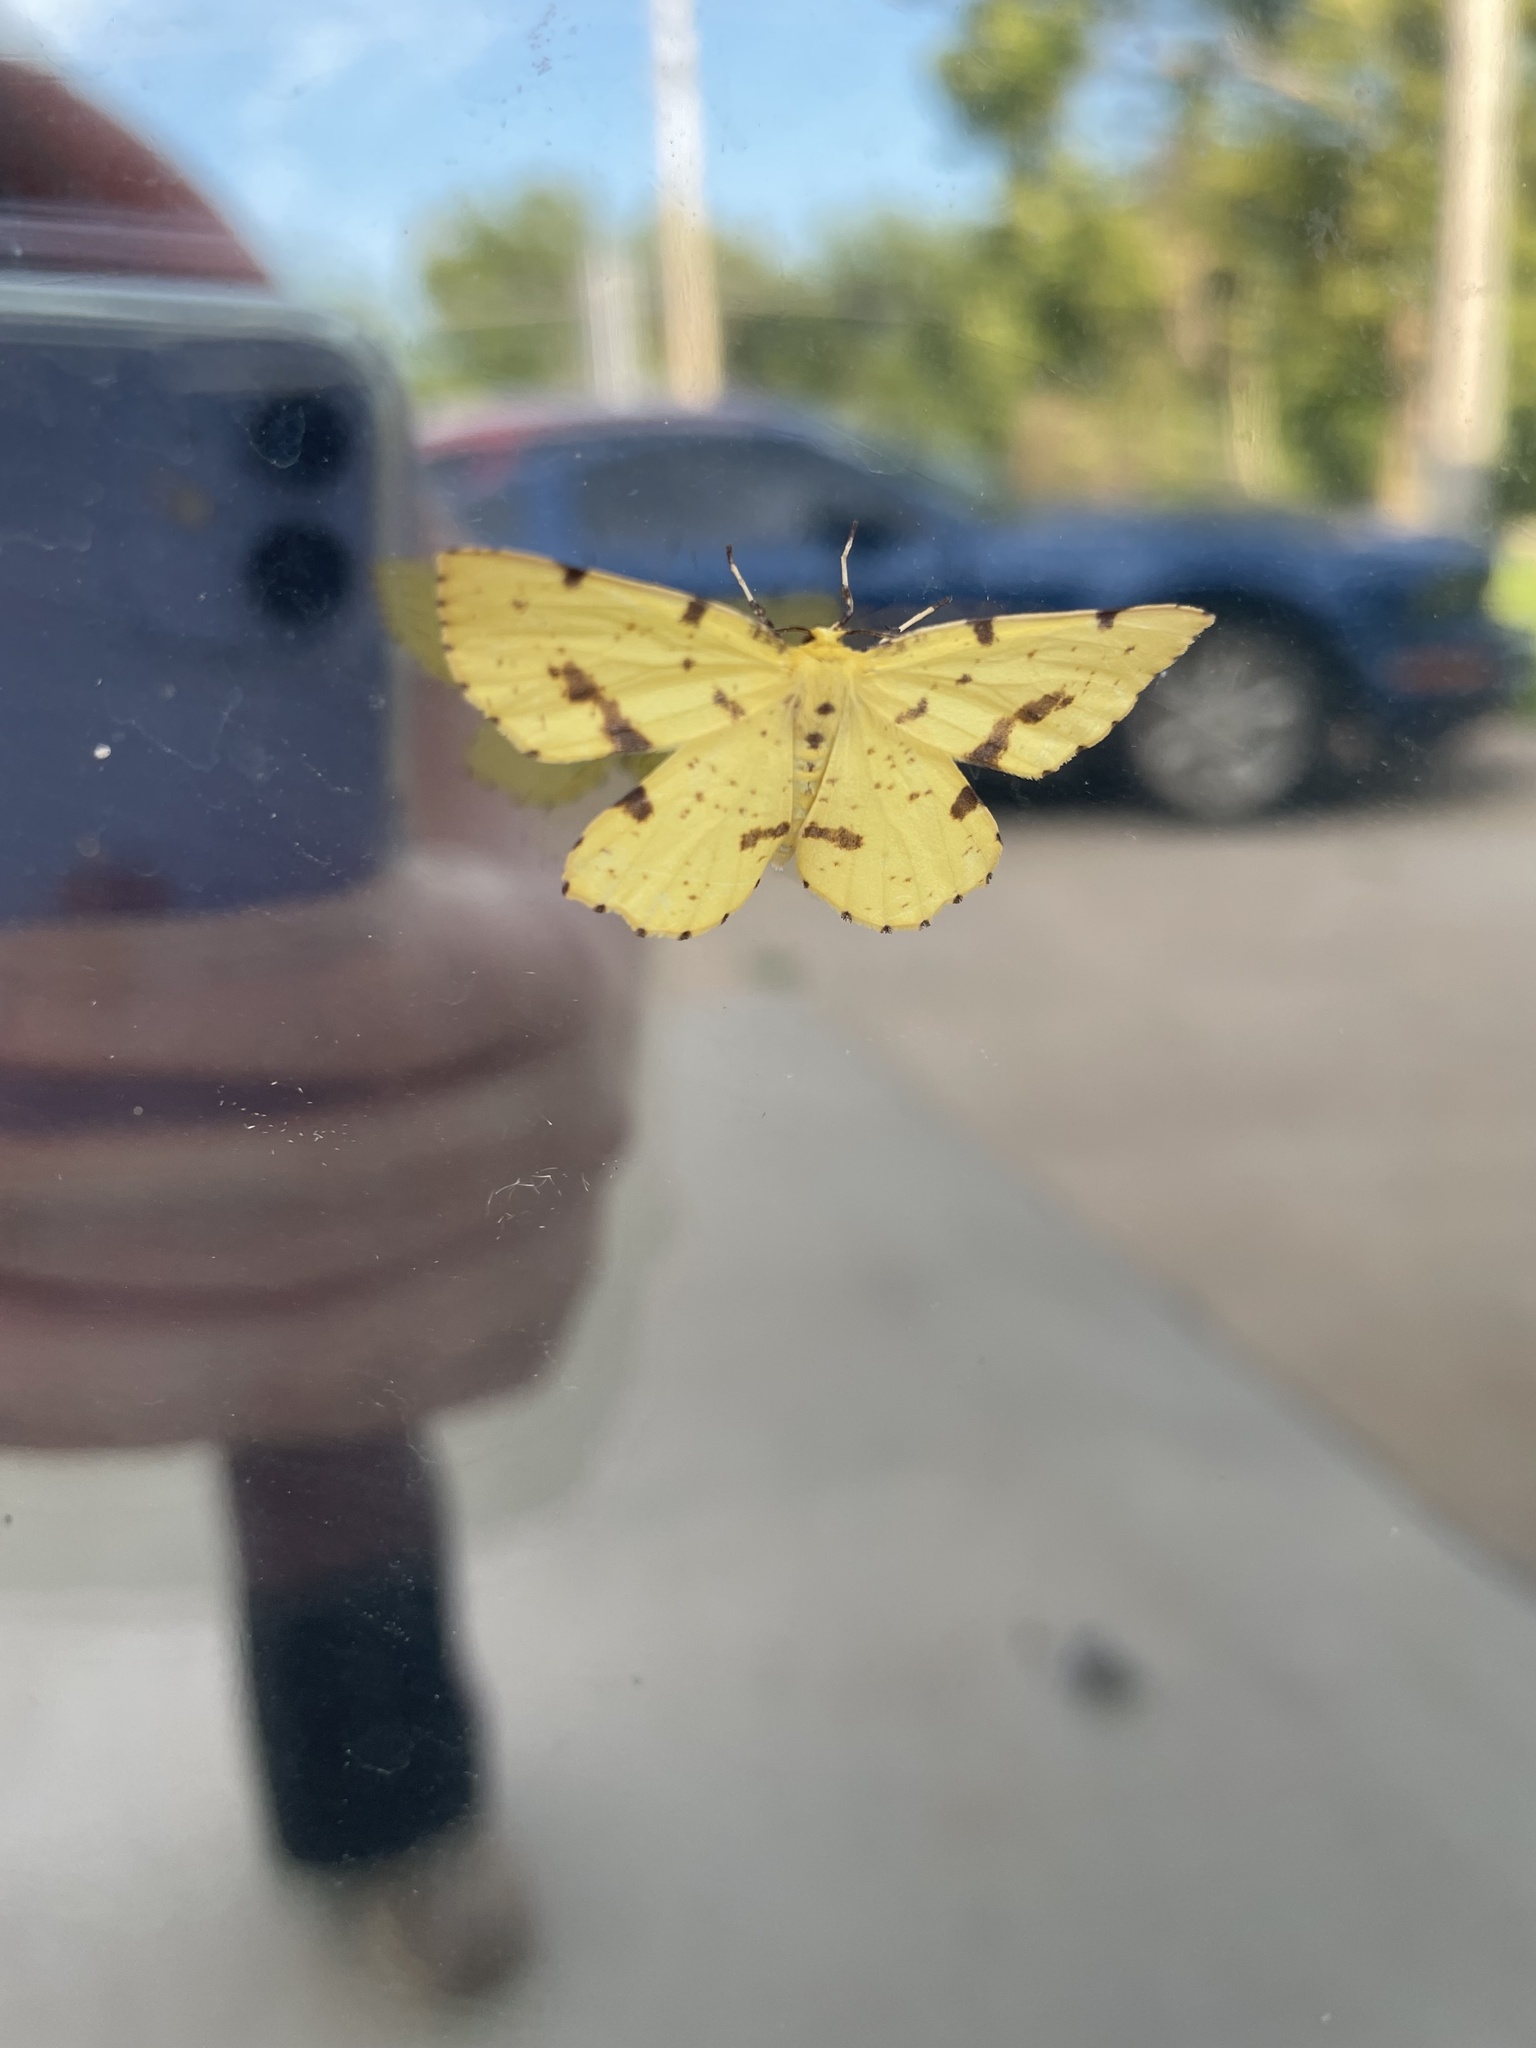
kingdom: Animalia
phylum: Arthropoda
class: Insecta
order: Lepidoptera
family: Geometridae
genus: Xanthotype
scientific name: Xanthotype
